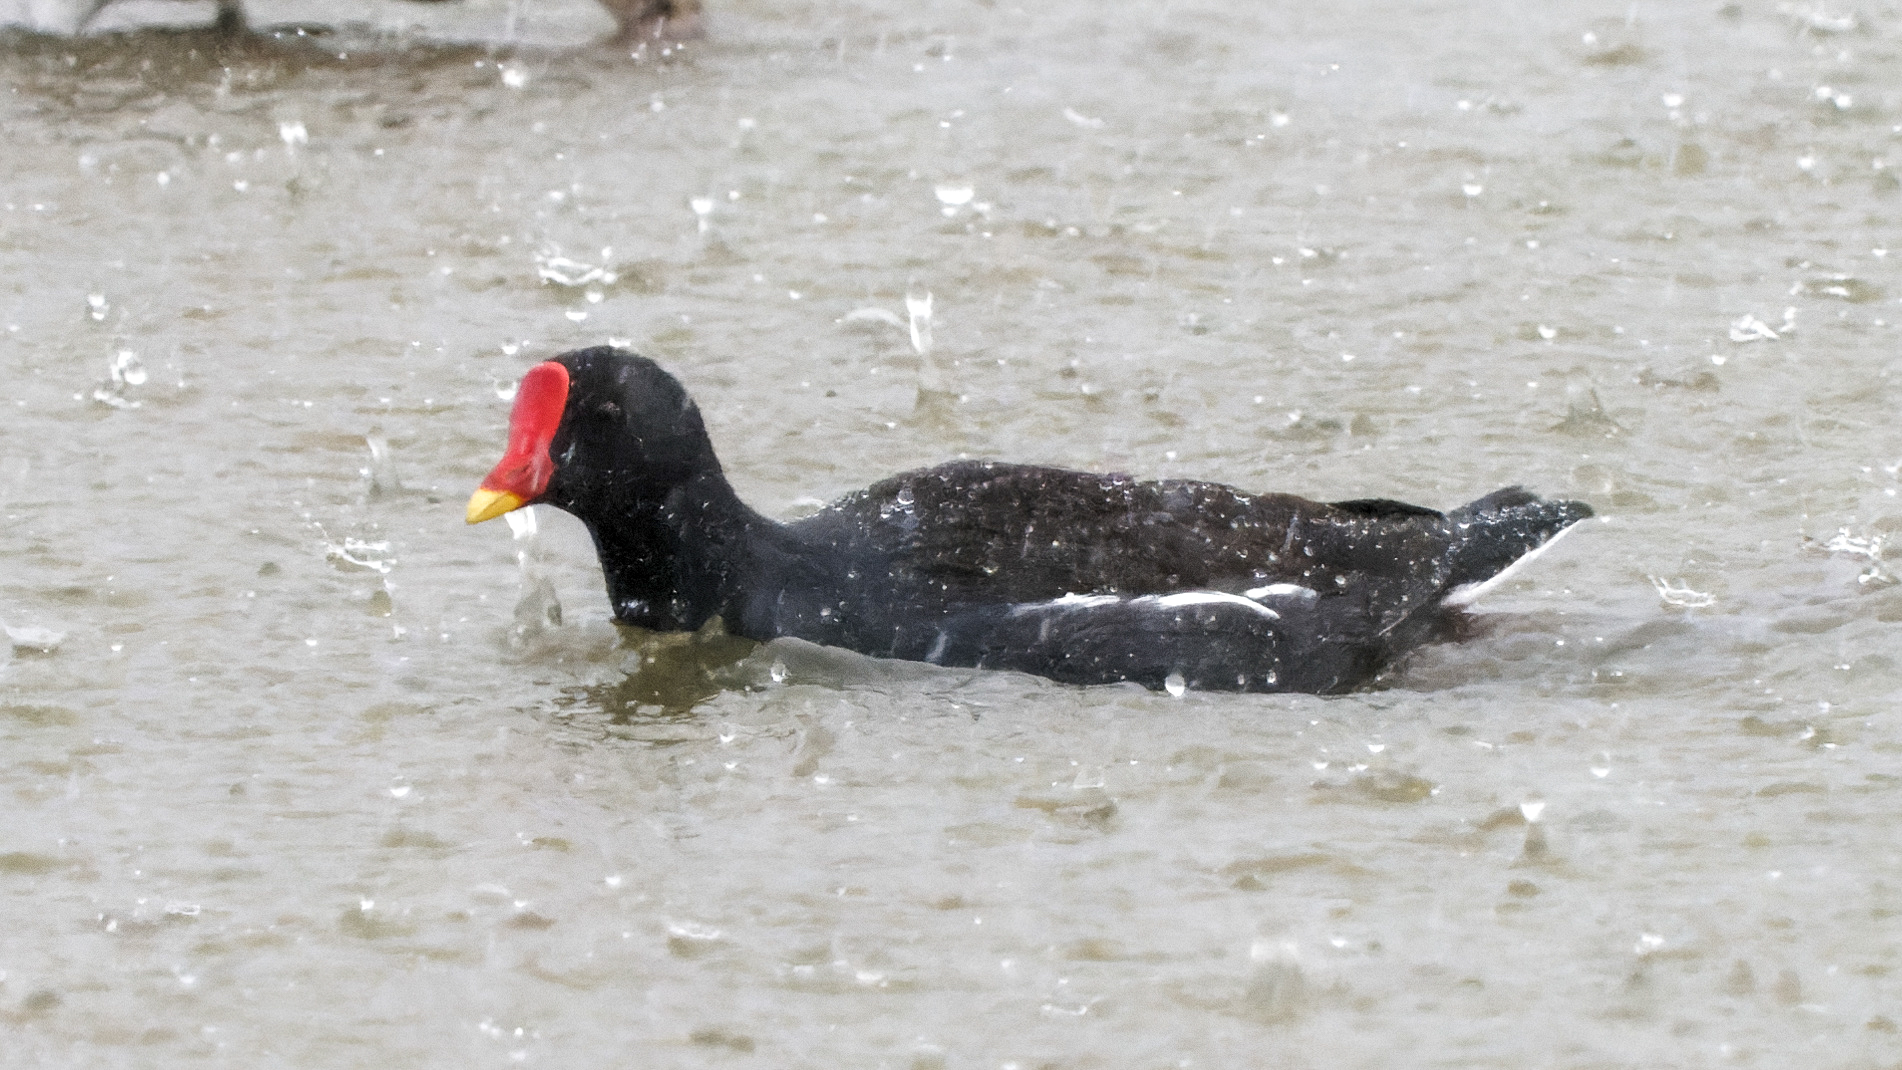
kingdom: Animalia
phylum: Chordata
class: Aves
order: Gruiformes
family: Rallidae
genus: Gallinula
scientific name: Gallinula chloropus
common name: Common moorhen
